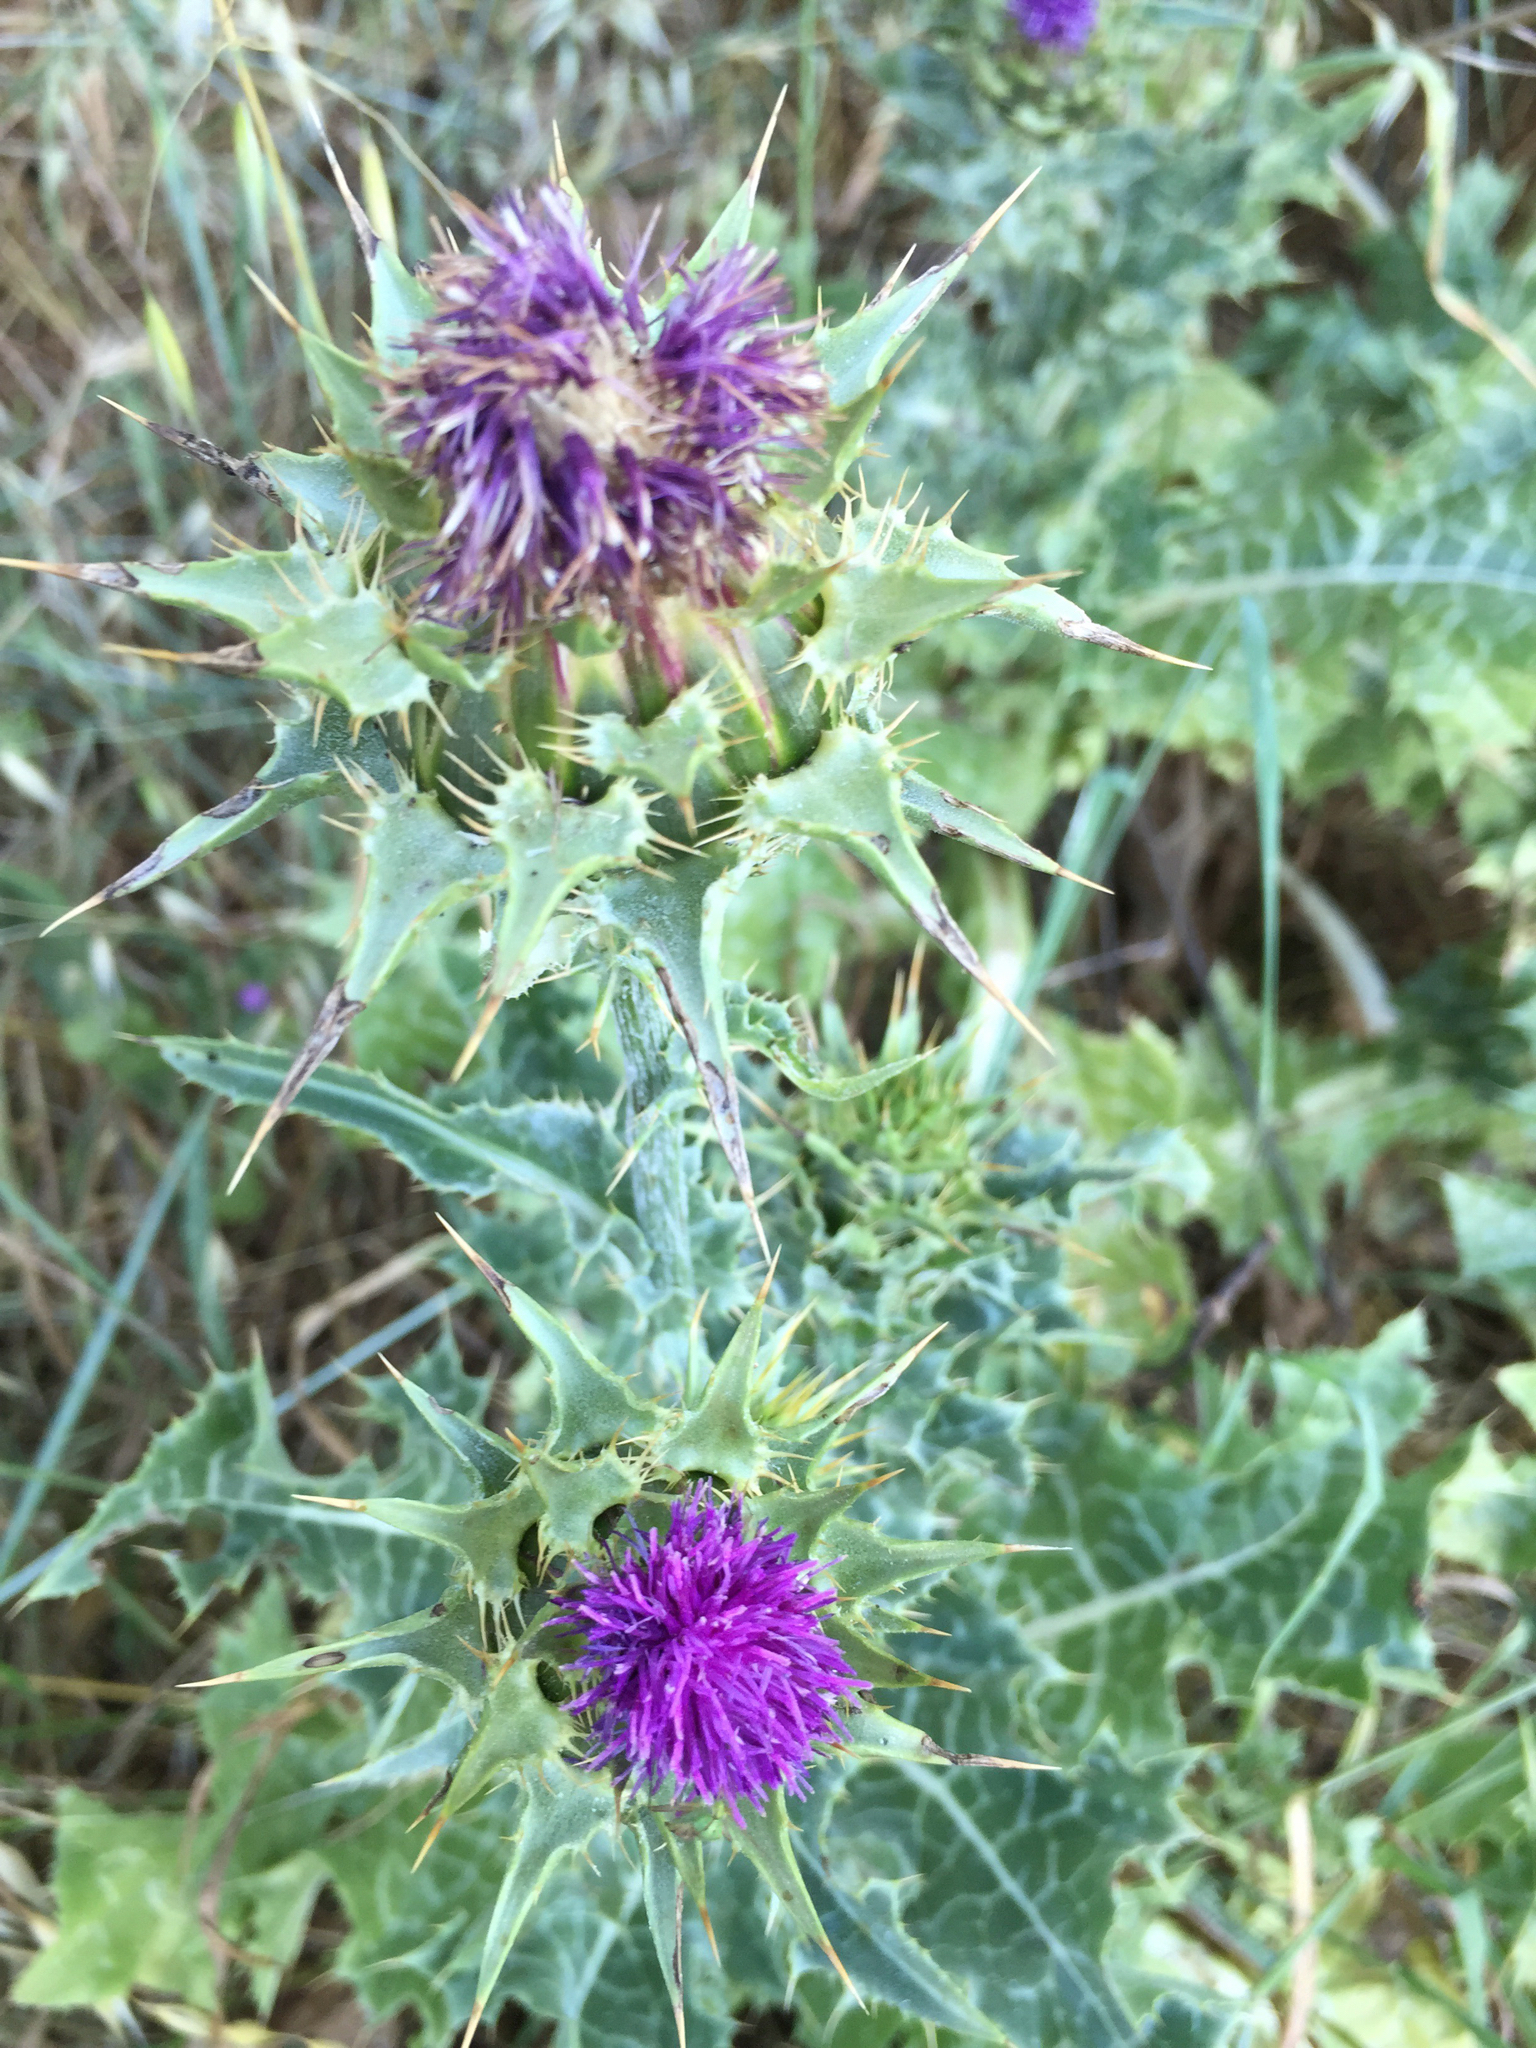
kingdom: Plantae
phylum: Tracheophyta
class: Magnoliopsida
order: Asterales
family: Asteraceae
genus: Silybum
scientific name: Silybum marianum
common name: Milk thistle
